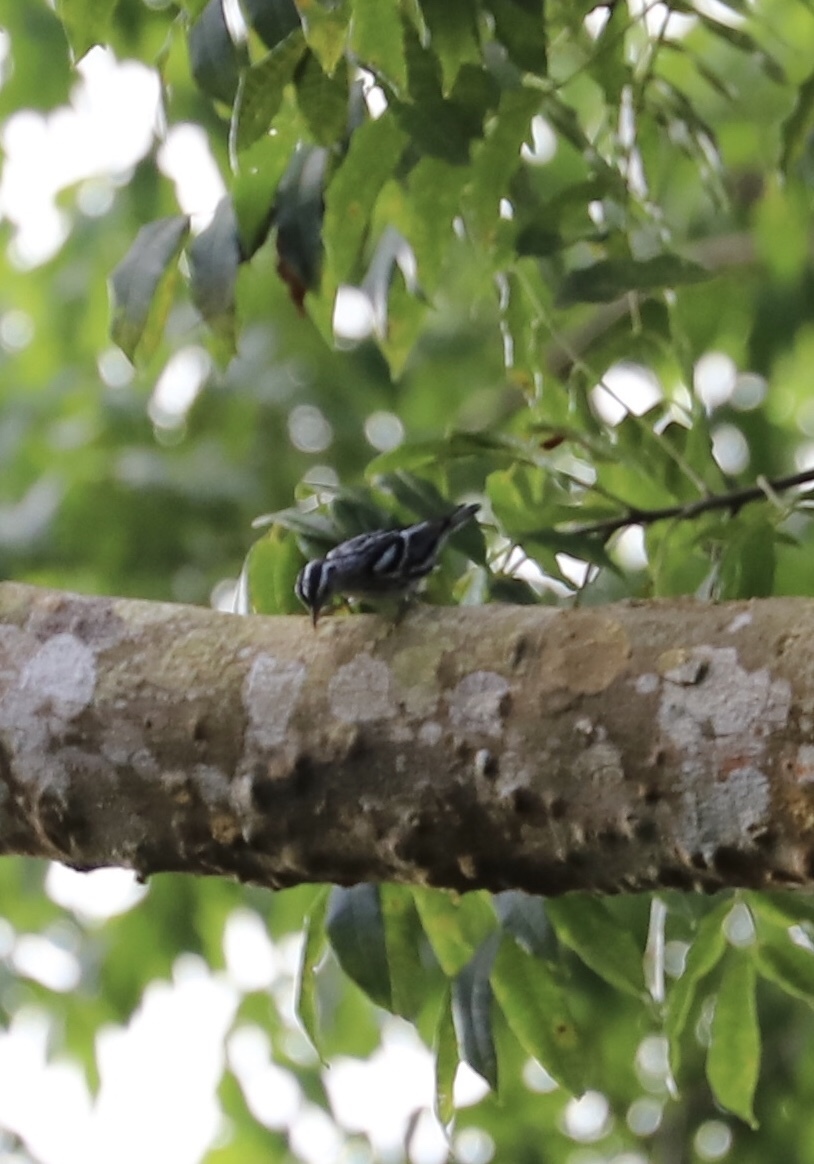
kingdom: Animalia
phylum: Chordata
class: Aves
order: Passeriformes
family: Parulidae
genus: Mniotilta
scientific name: Mniotilta varia
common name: Black-and-white warbler
